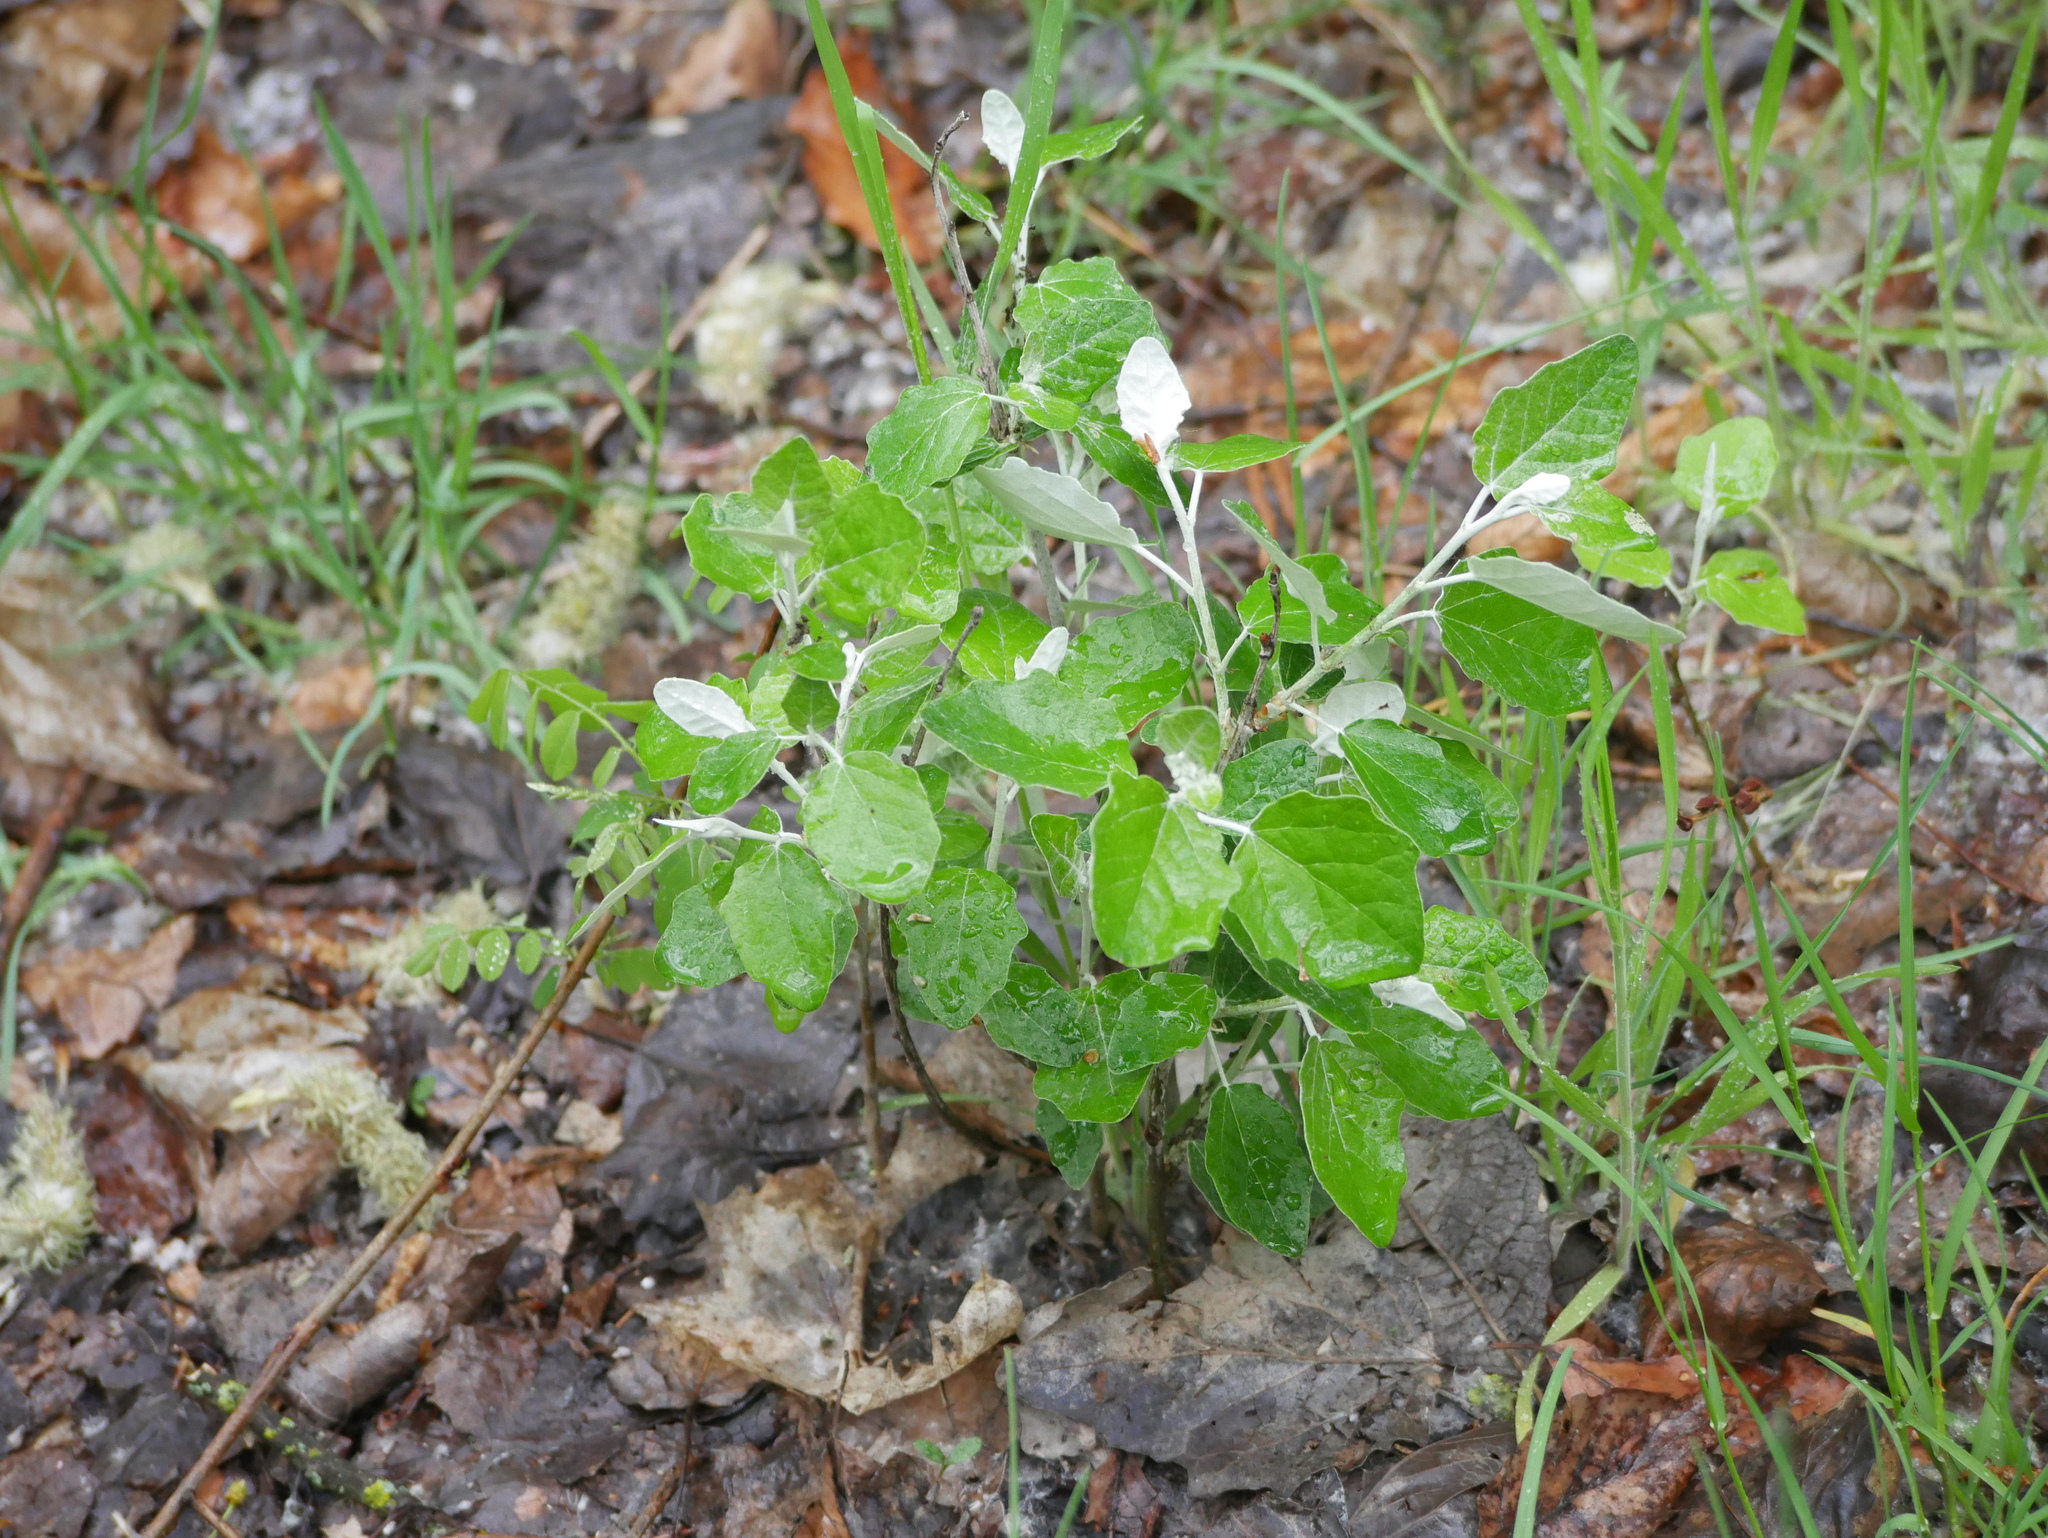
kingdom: Plantae
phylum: Tracheophyta
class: Magnoliopsida
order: Malpighiales
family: Salicaceae
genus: Populus
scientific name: Populus alba
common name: White poplar
